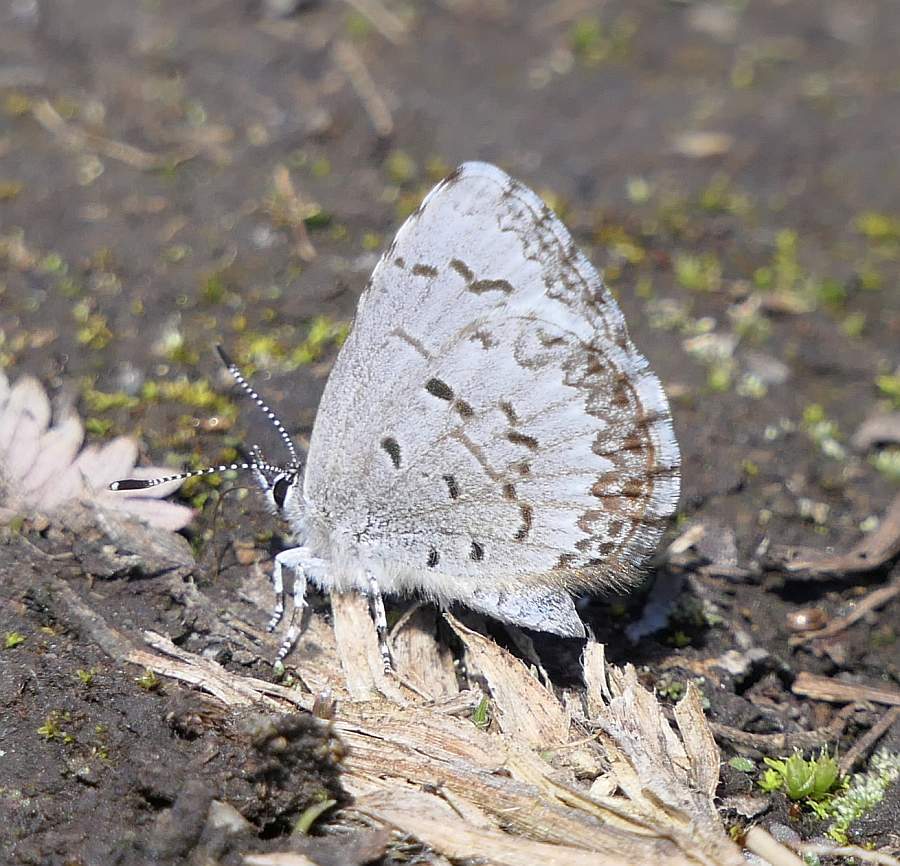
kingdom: Animalia
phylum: Arthropoda
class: Insecta
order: Lepidoptera
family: Lycaenidae
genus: Celastrina
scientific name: Celastrina lucia
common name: Lucia azure
